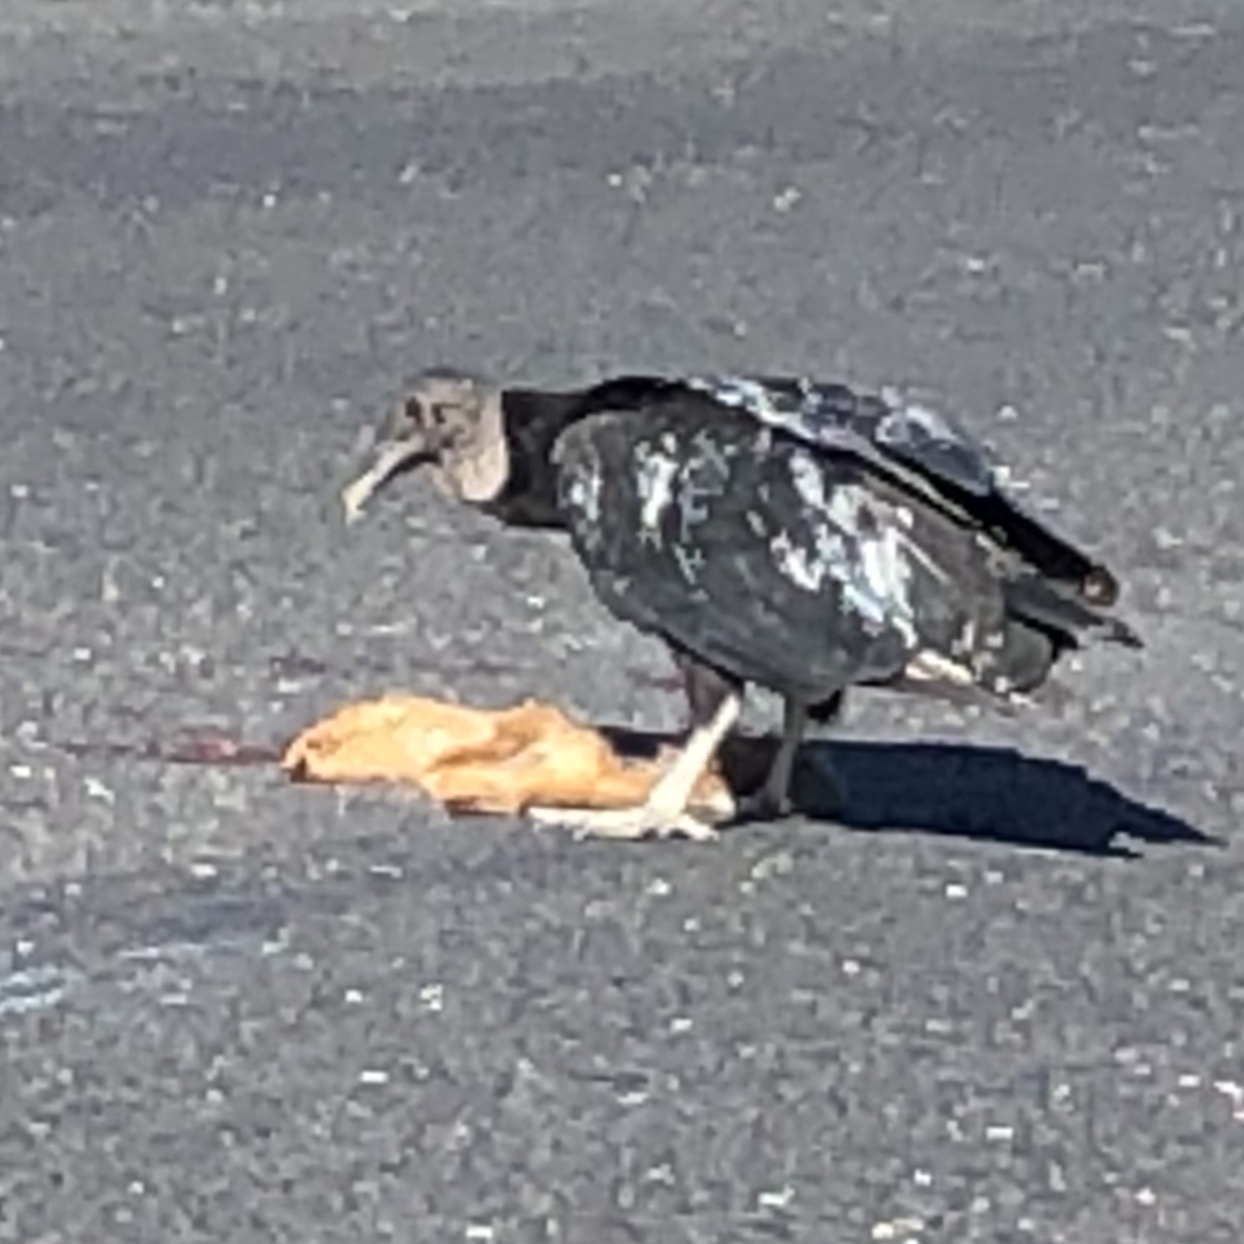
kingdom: Animalia
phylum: Chordata
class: Aves
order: Accipitriformes
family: Cathartidae
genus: Coragyps
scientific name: Coragyps atratus
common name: Black vulture
